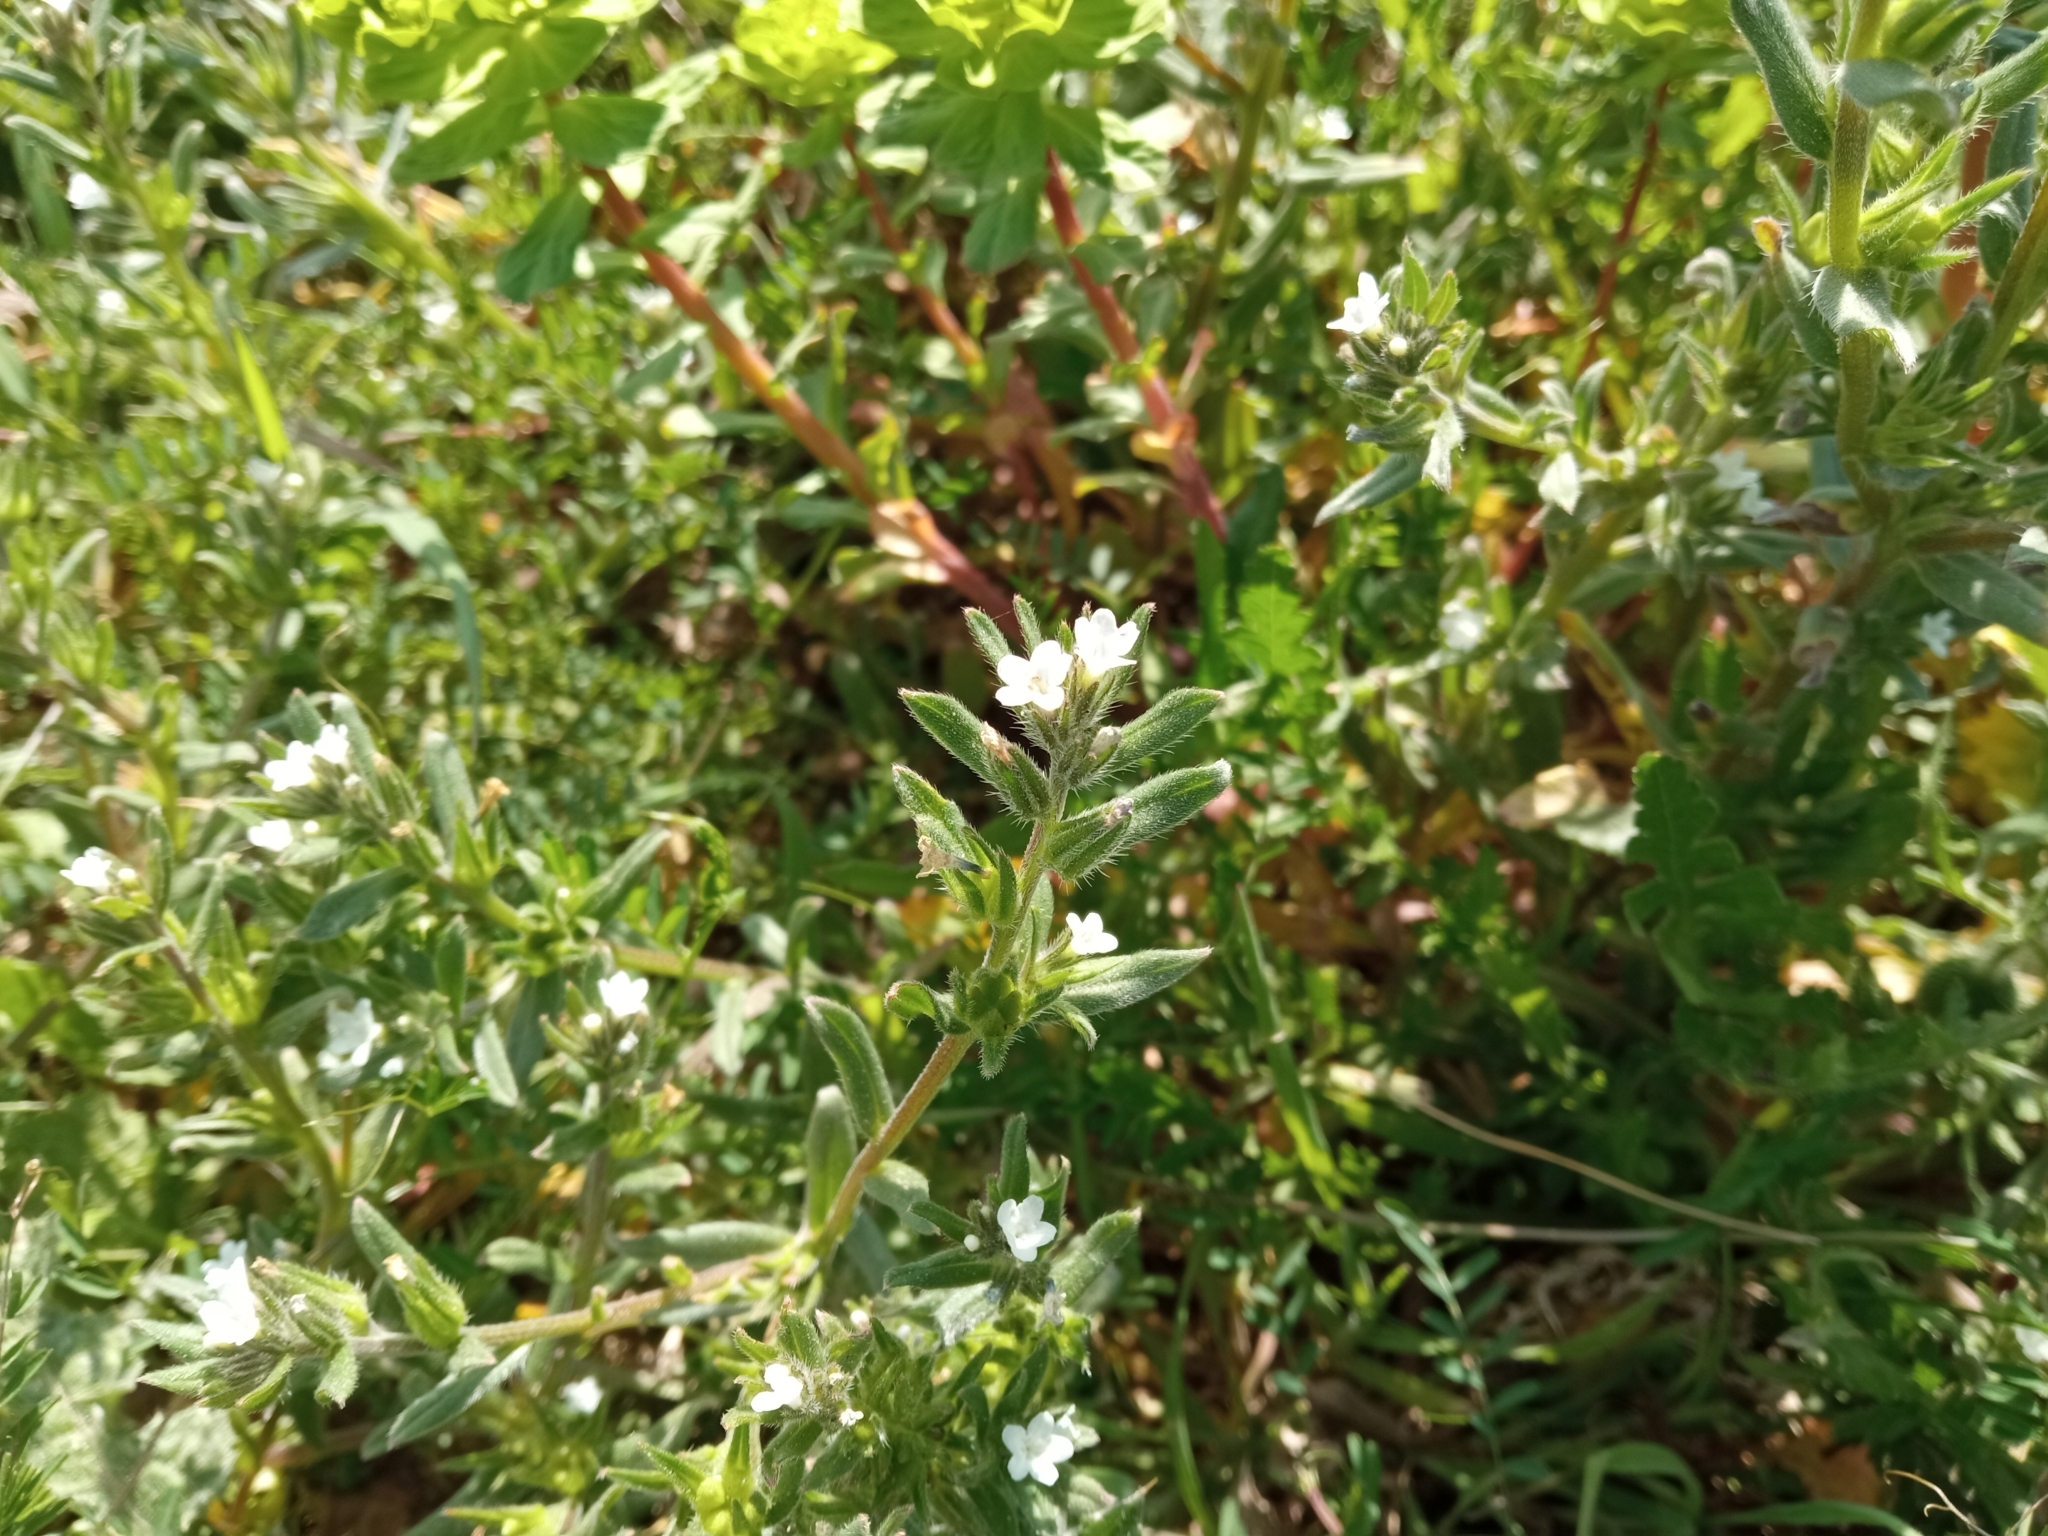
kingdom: Plantae
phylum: Tracheophyta
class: Magnoliopsida
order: Boraginales
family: Boraginaceae
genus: Buglossoides
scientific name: Buglossoides arvensis
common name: Corn gromwell
